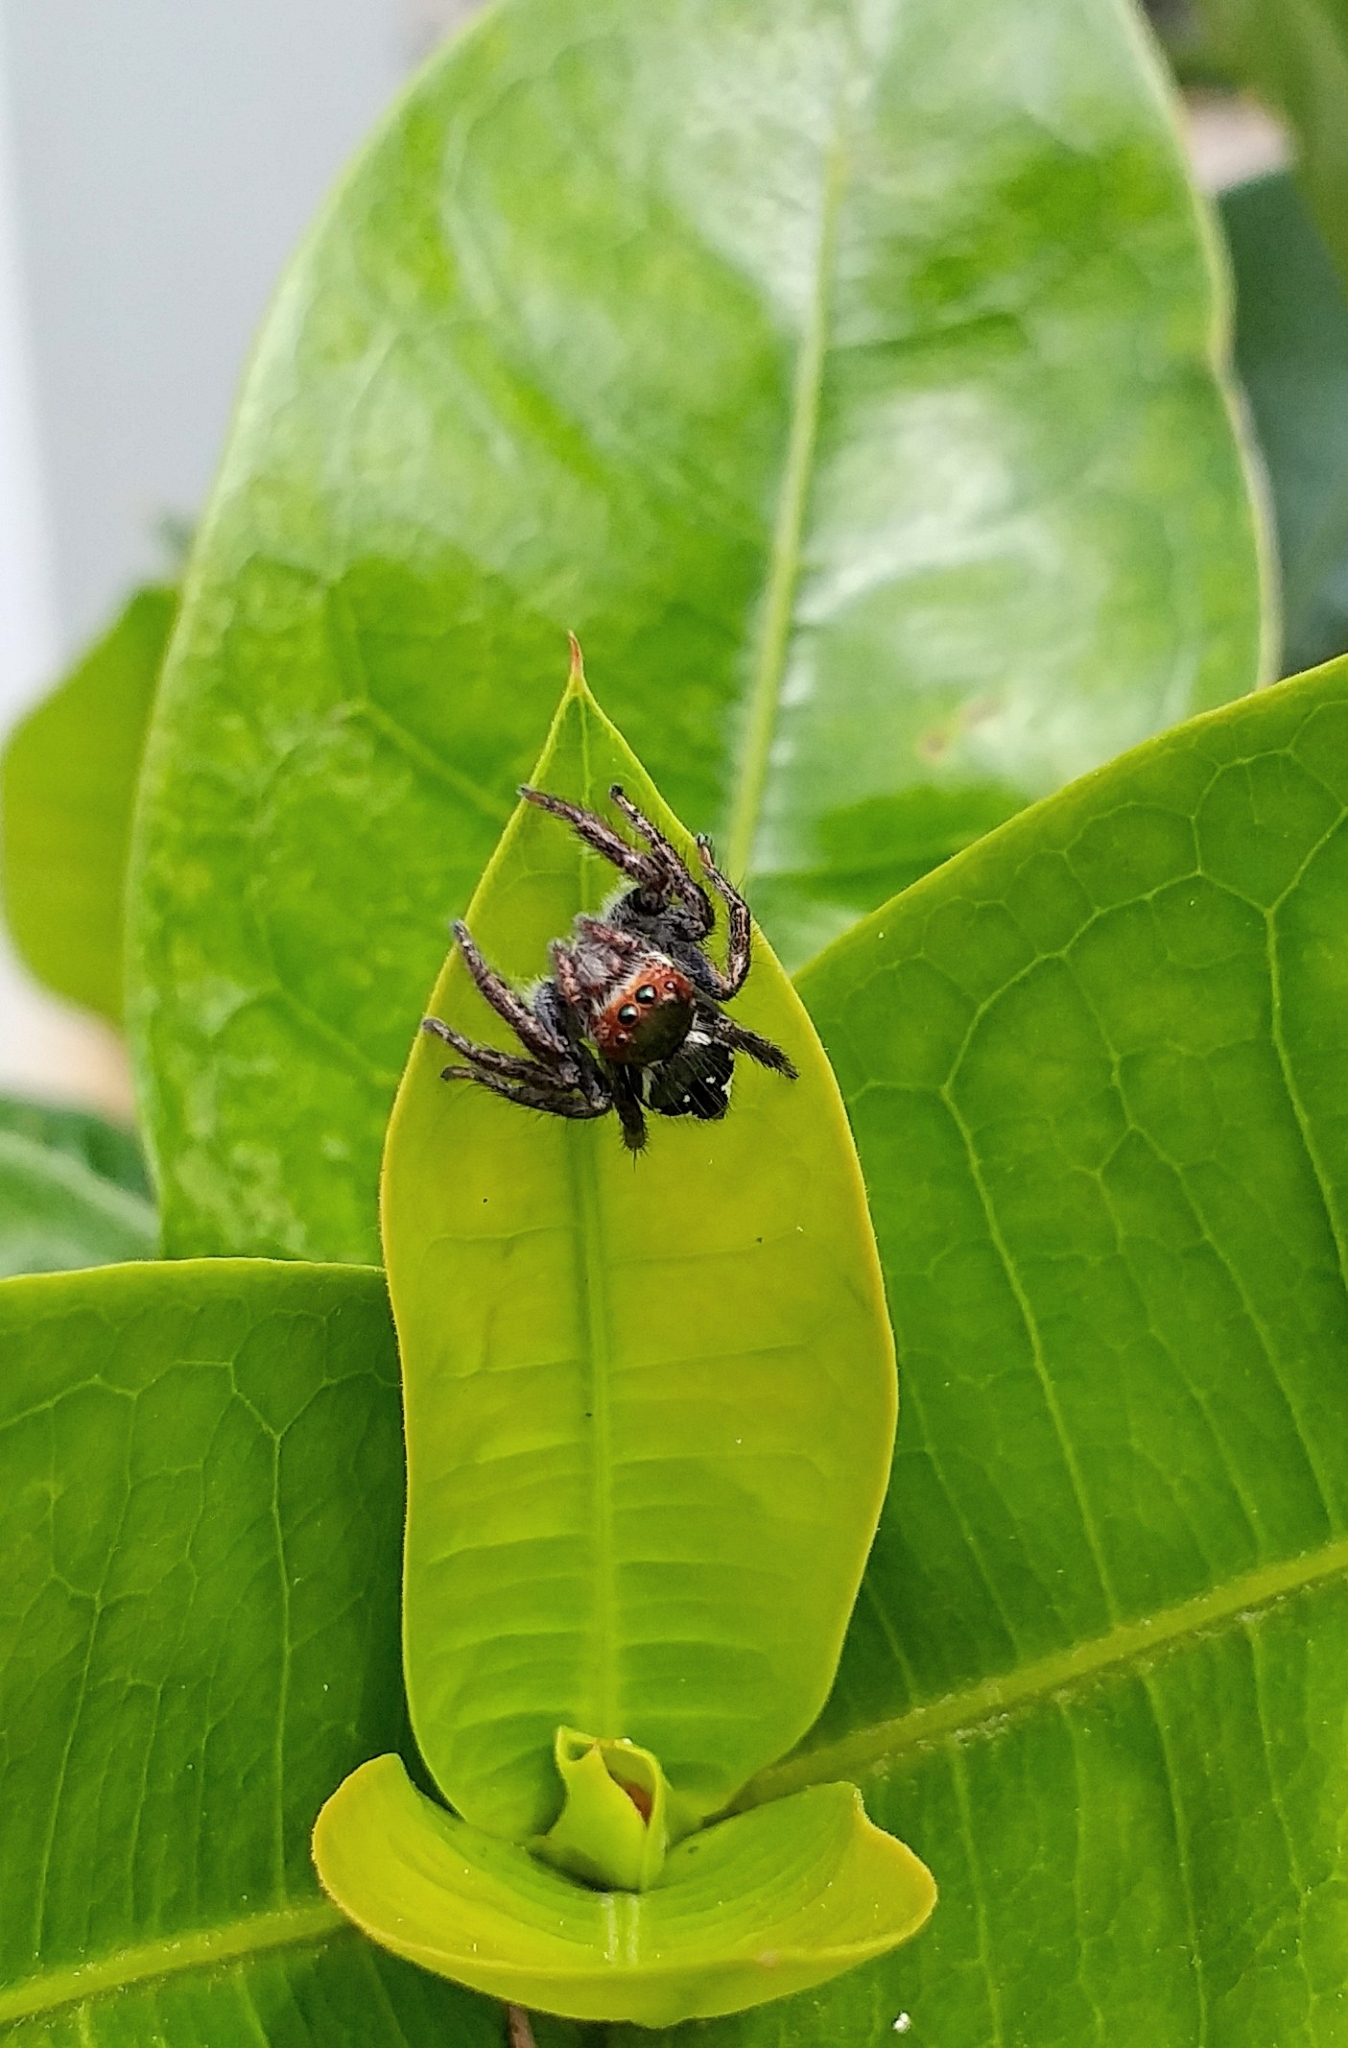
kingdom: Animalia
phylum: Arthropoda
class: Arachnida
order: Araneae
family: Salticidae
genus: Carrhotus
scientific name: Carrhotus viduus
